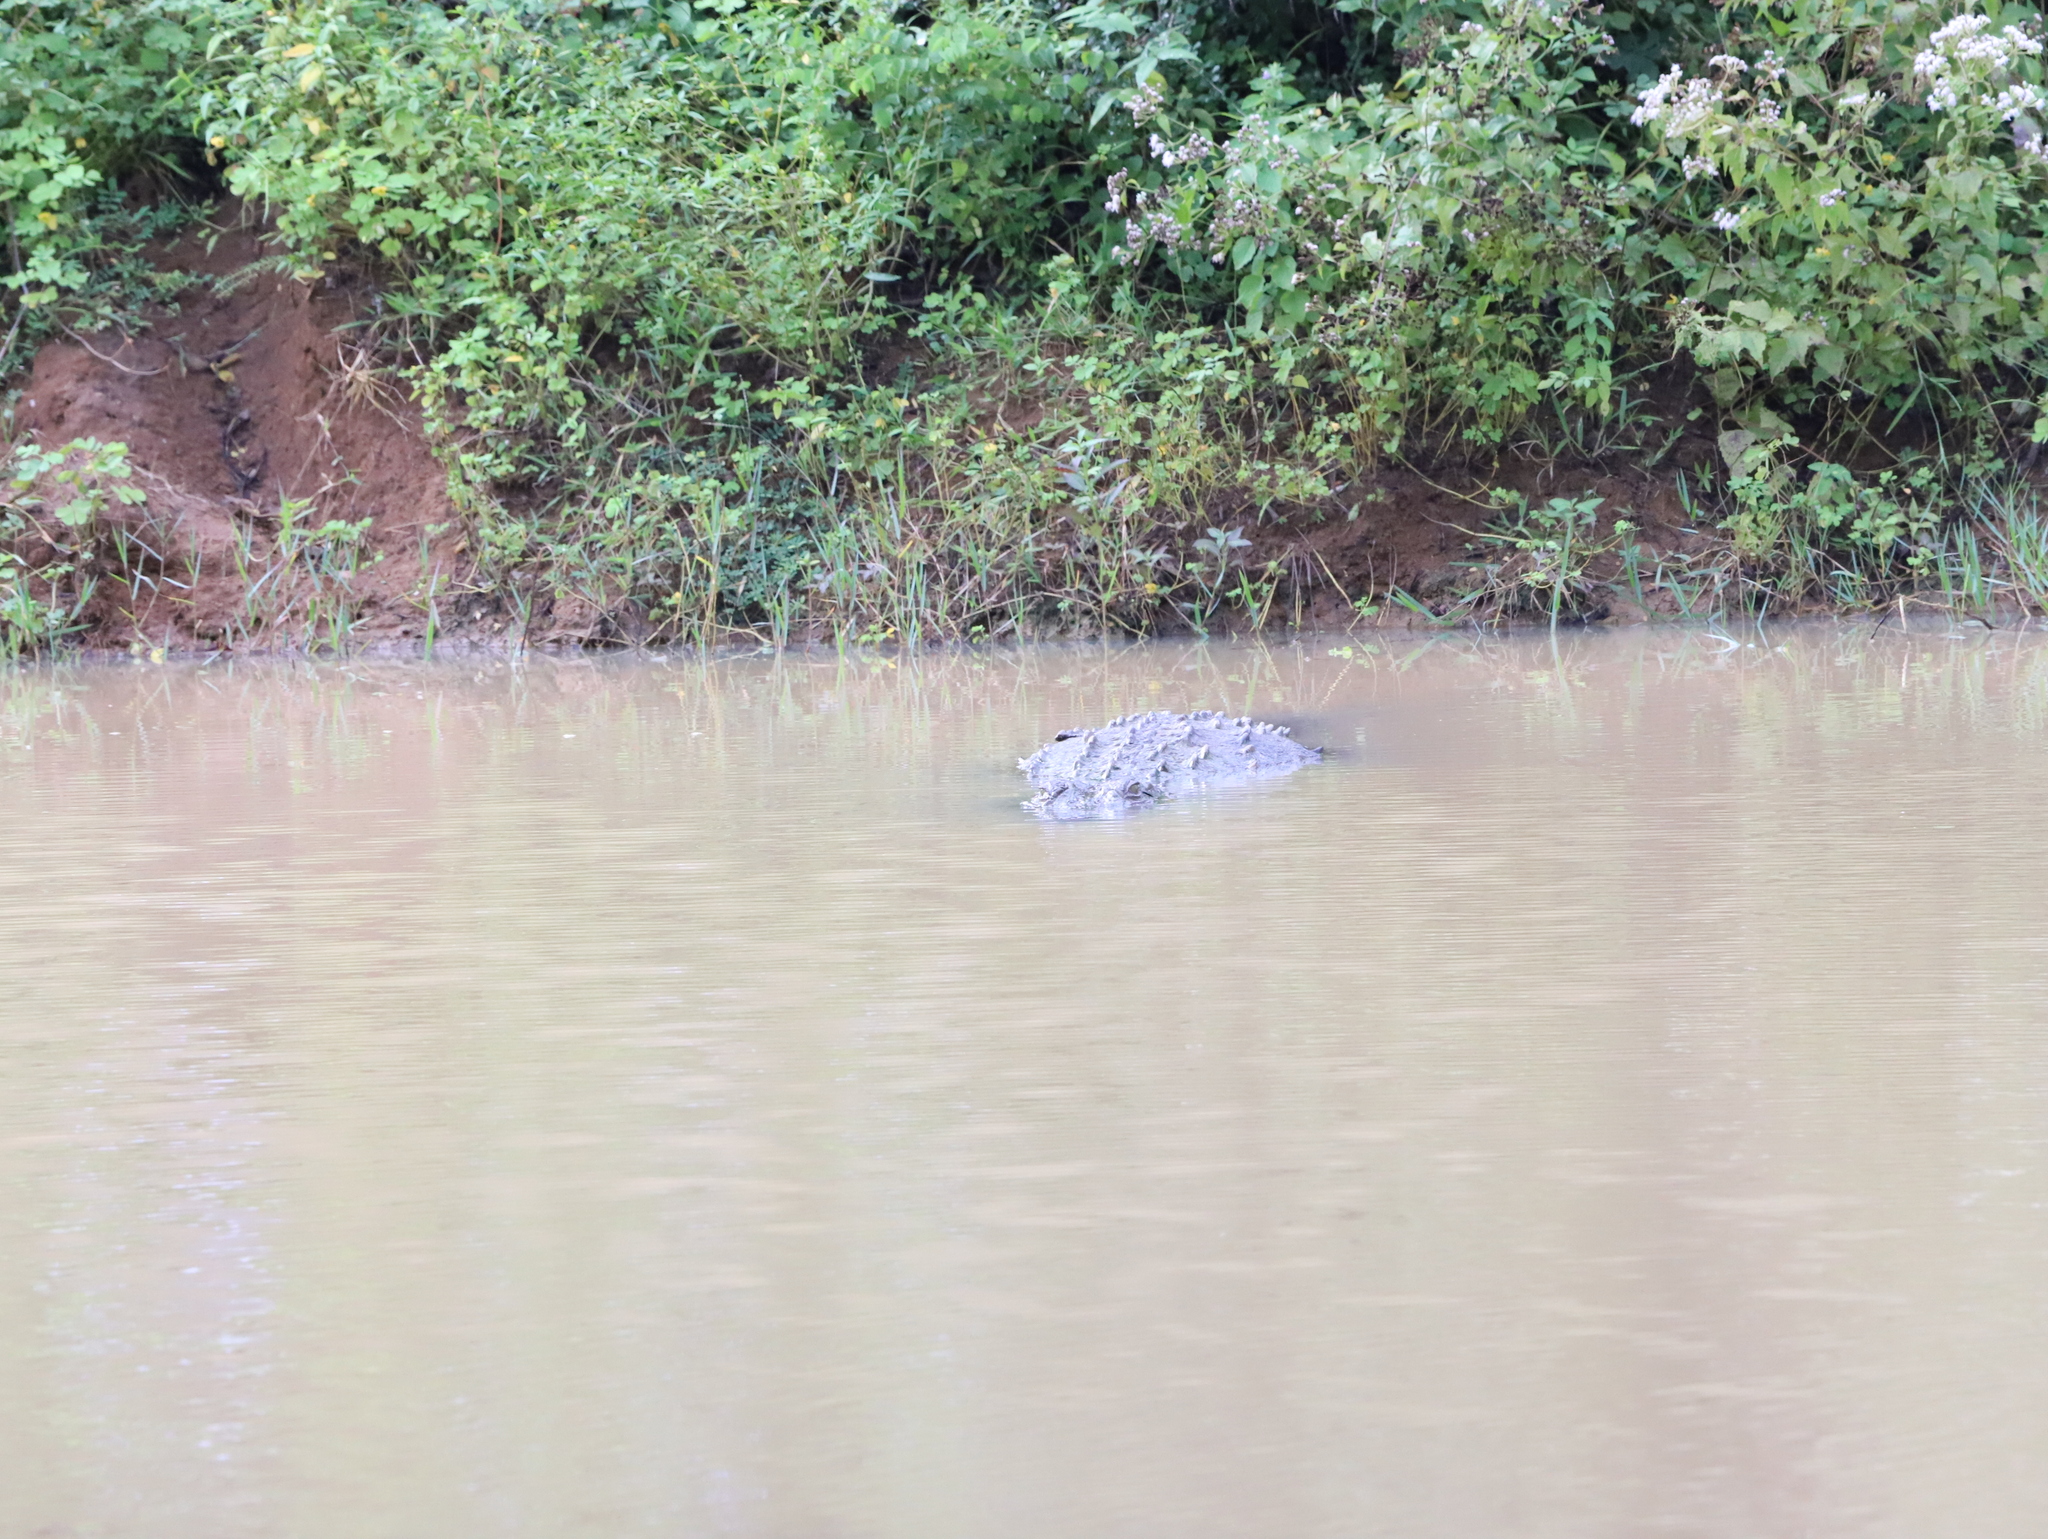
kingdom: Animalia
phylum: Chordata
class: Crocodylia
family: Crocodylidae
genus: Crocodylus
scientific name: Crocodylus palustris
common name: Mugger crocodile
